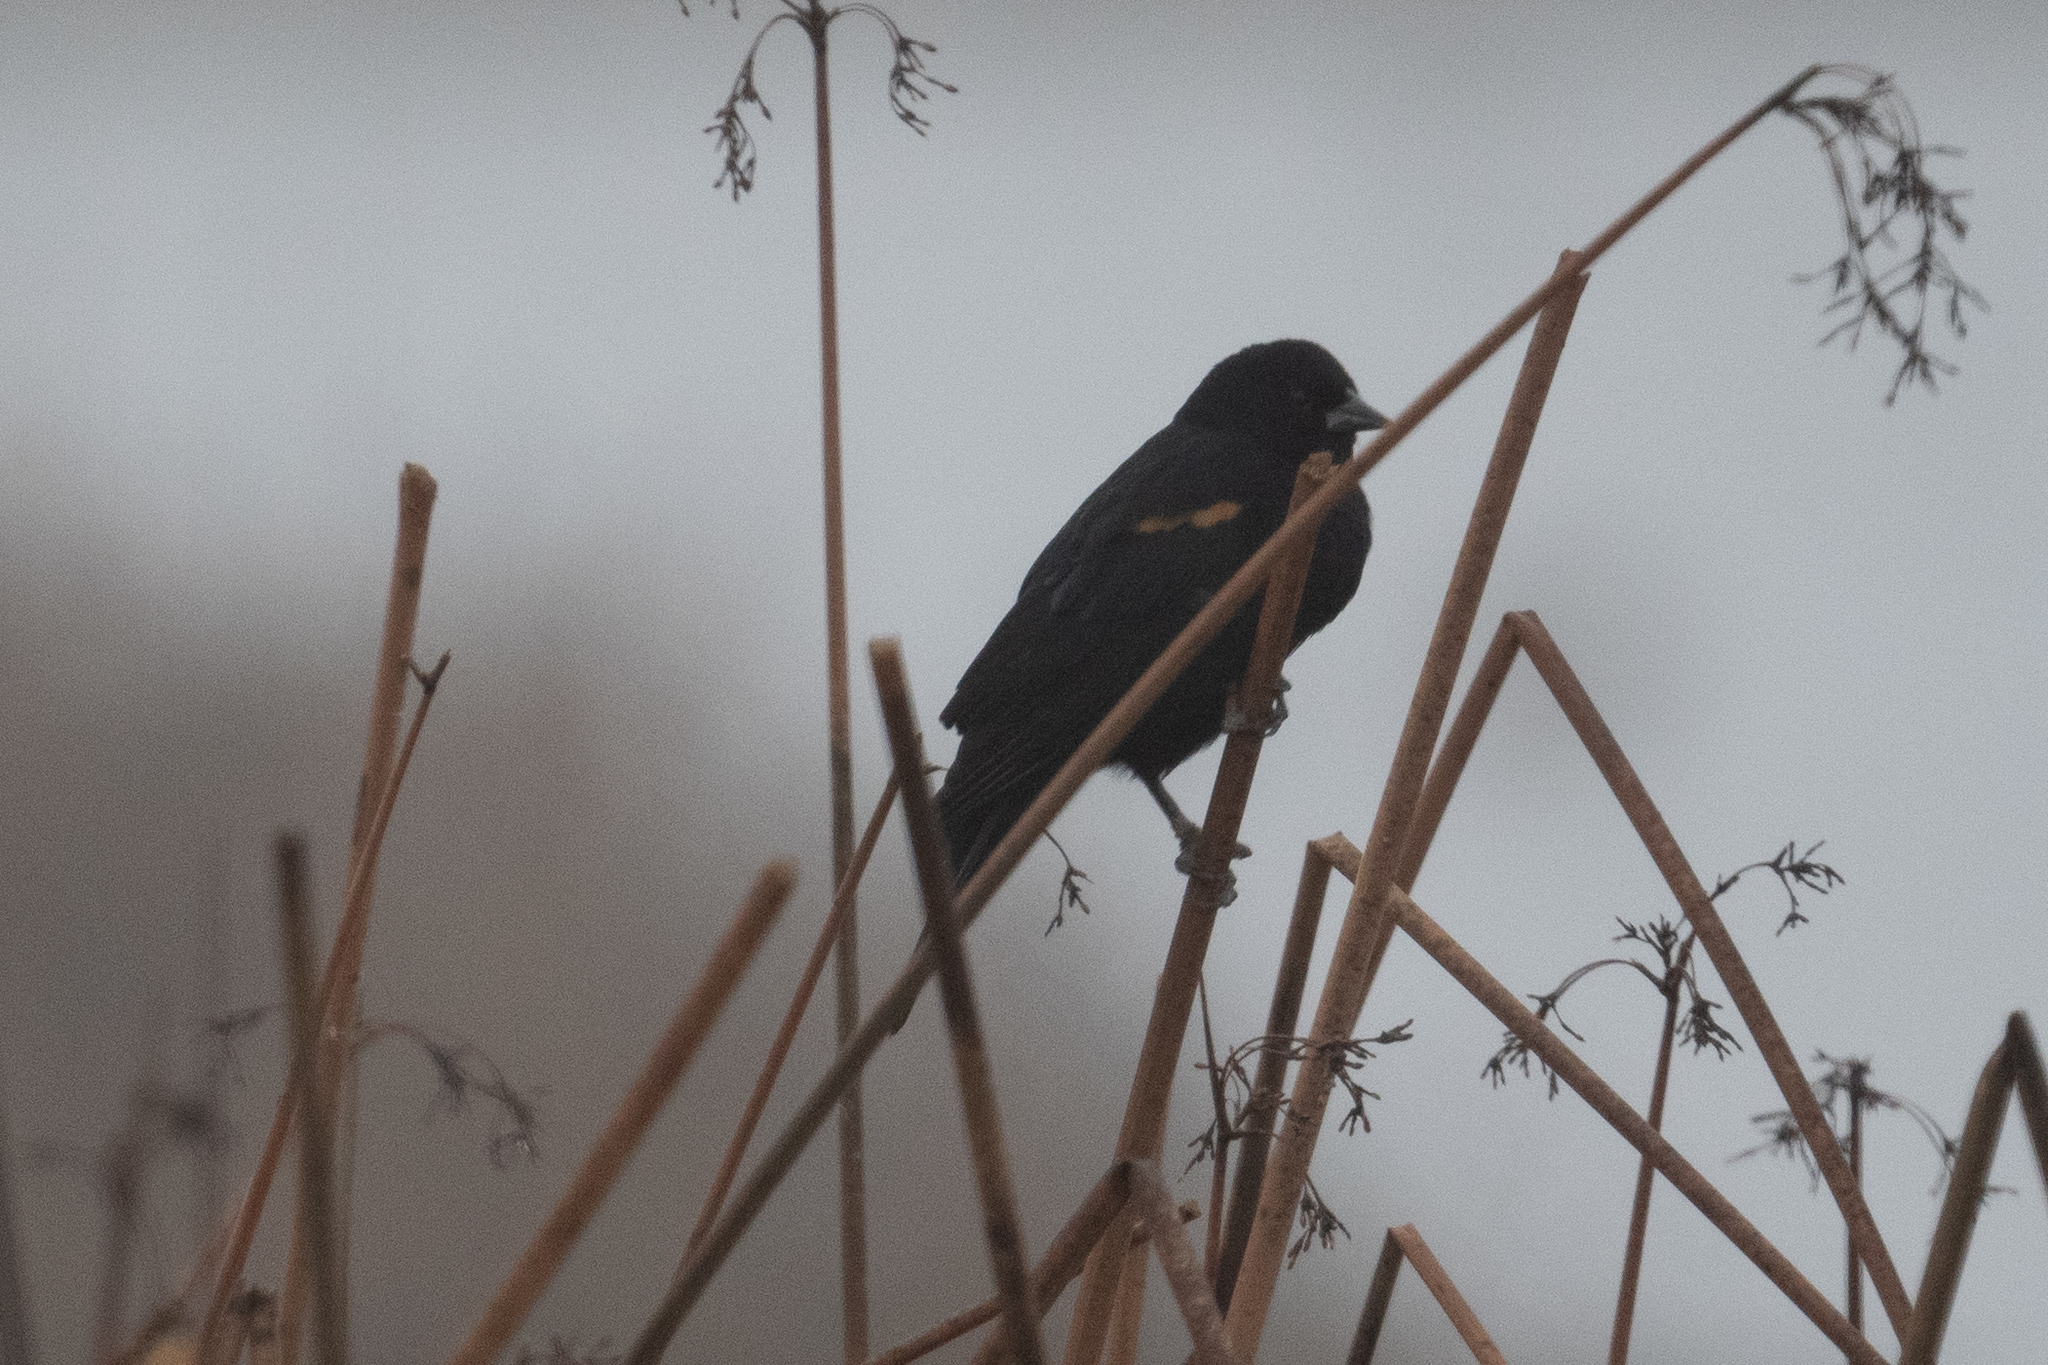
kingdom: Animalia
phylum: Chordata
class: Aves
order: Passeriformes
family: Icteridae
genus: Agelaius
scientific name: Agelaius phoeniceus
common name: Red-winged blackbird
